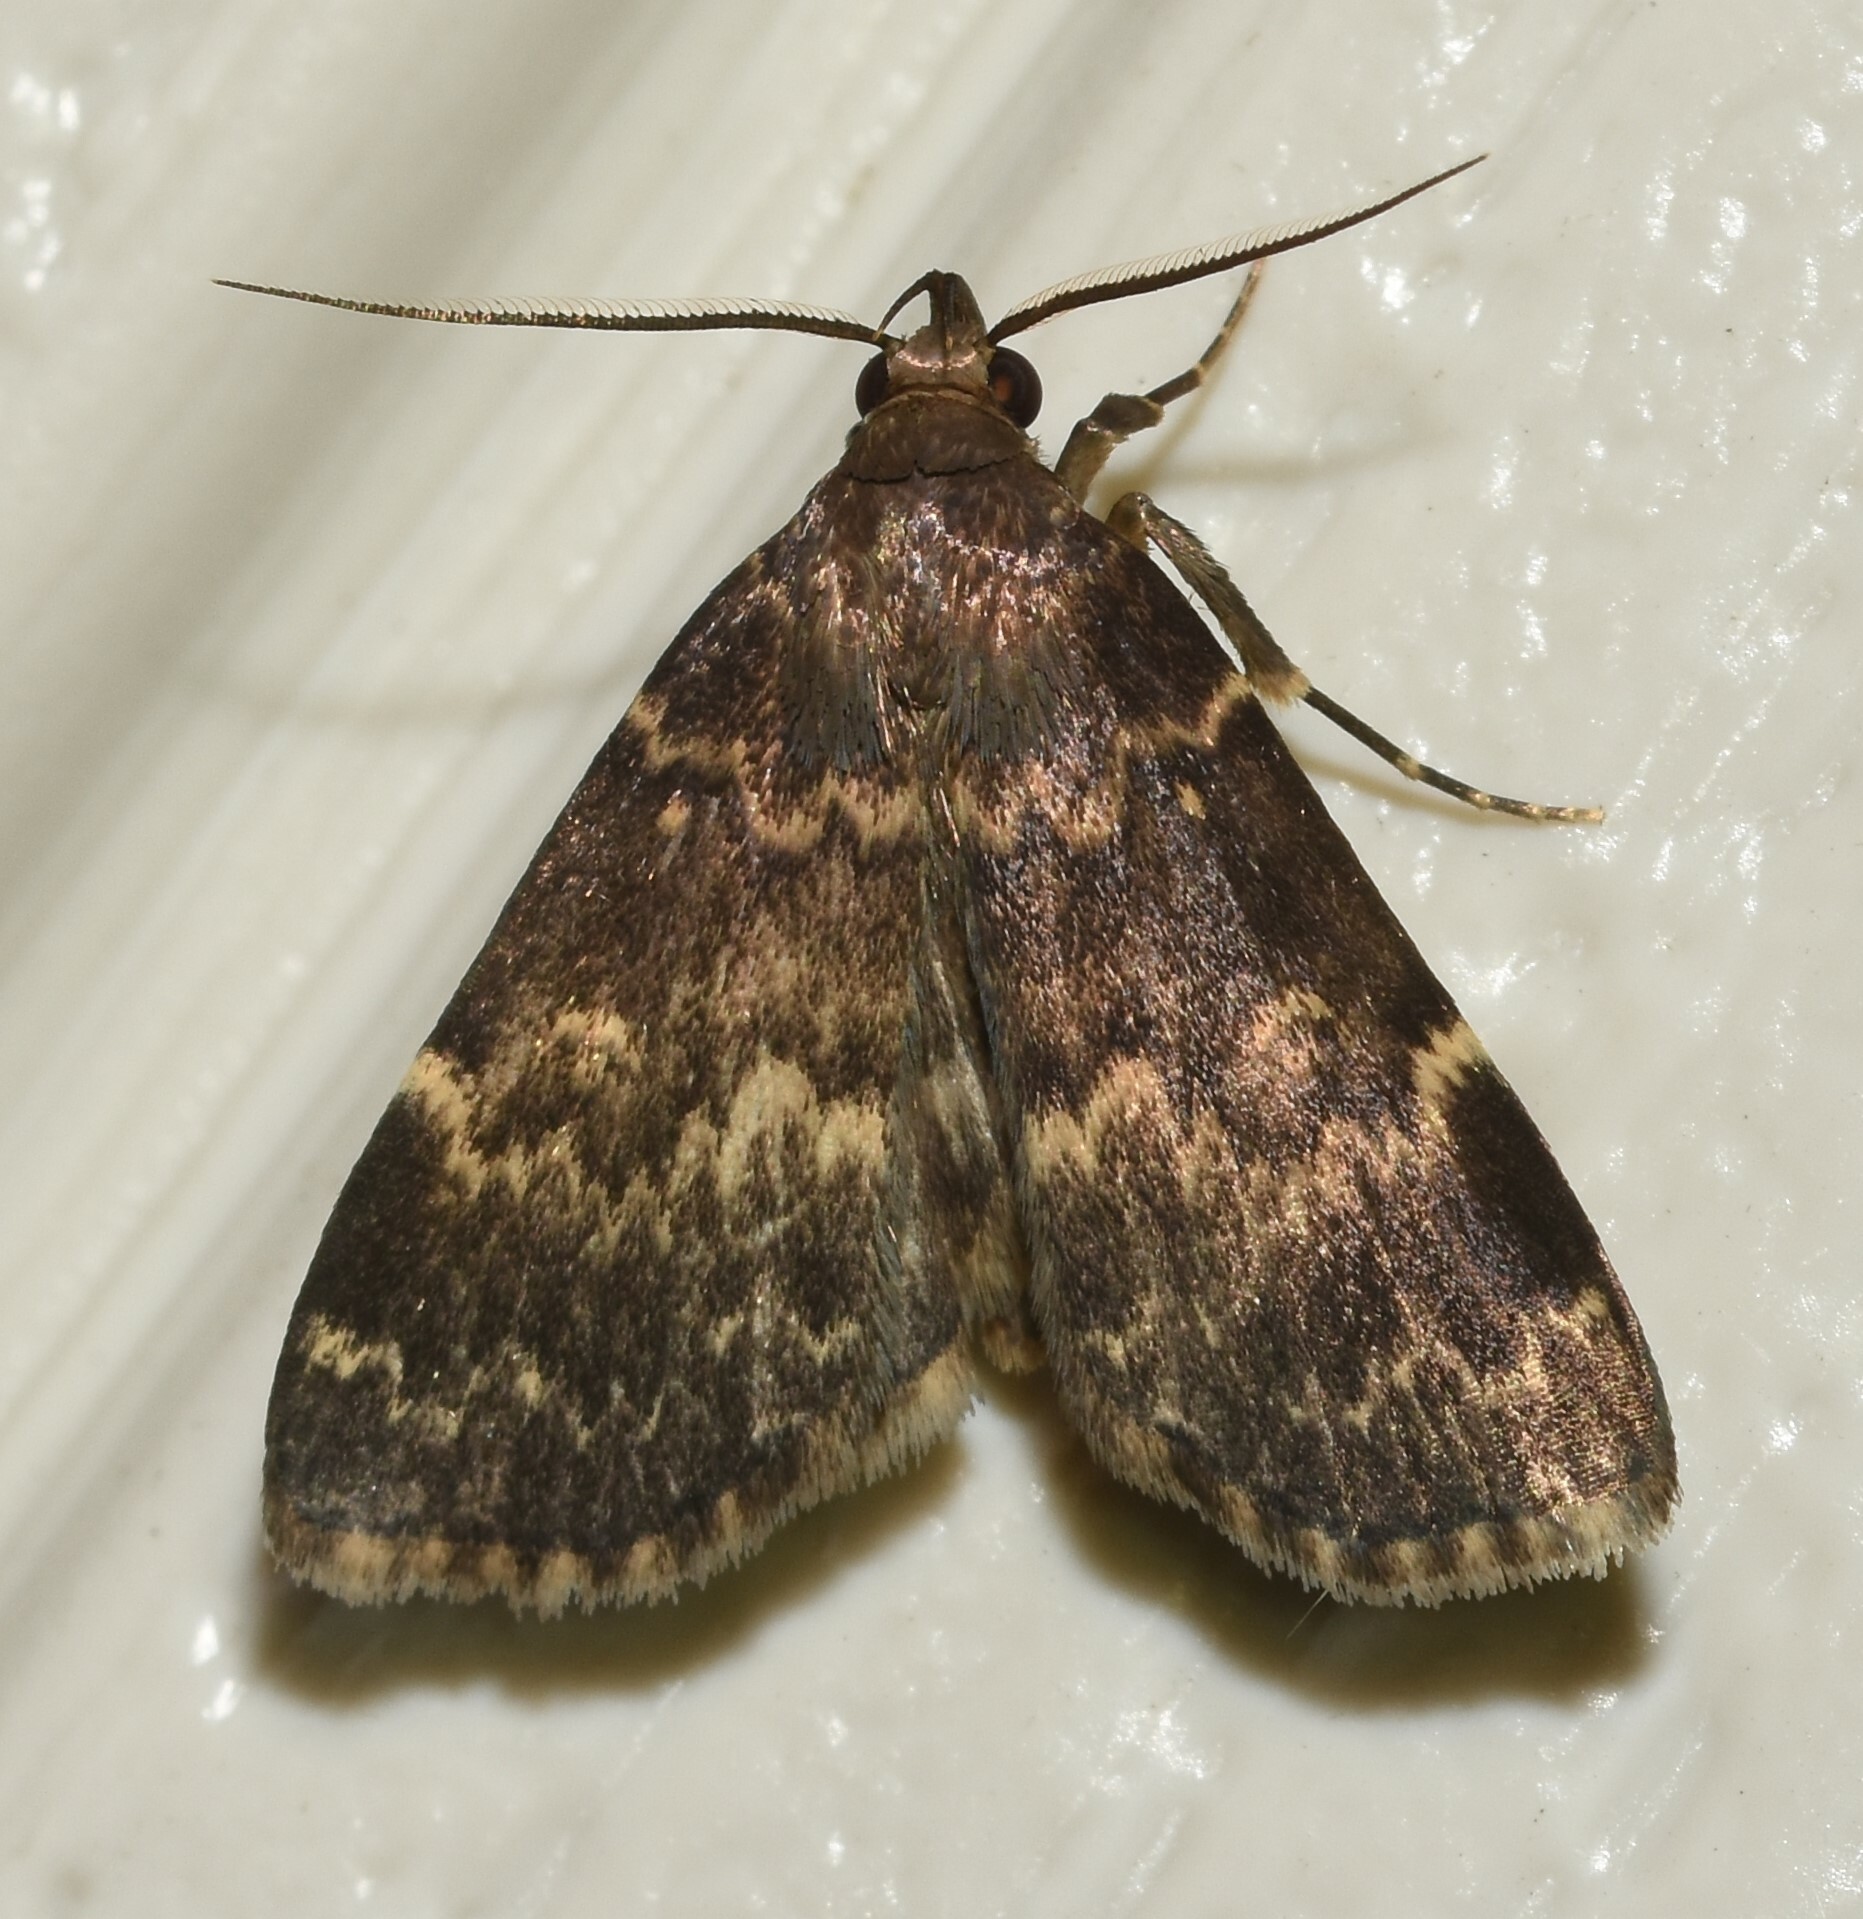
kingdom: Animalia
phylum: Arthropoda
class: Insecta
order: Lepidoptera
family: Erebidae
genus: Idia
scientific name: Idia lubricalis
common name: Twin-striped tabby
